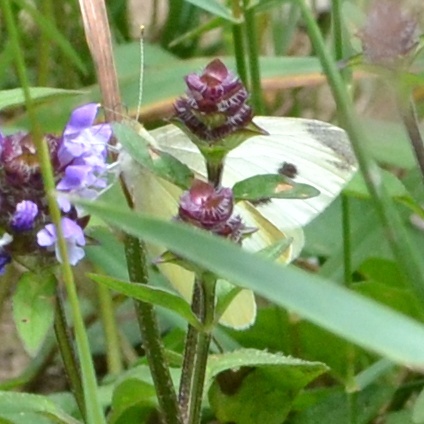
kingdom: Animalia
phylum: Arthropoda
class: Insecta
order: Lepidoptera
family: Pieridae
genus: Pieris
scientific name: Pieris rapae
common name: Small white
